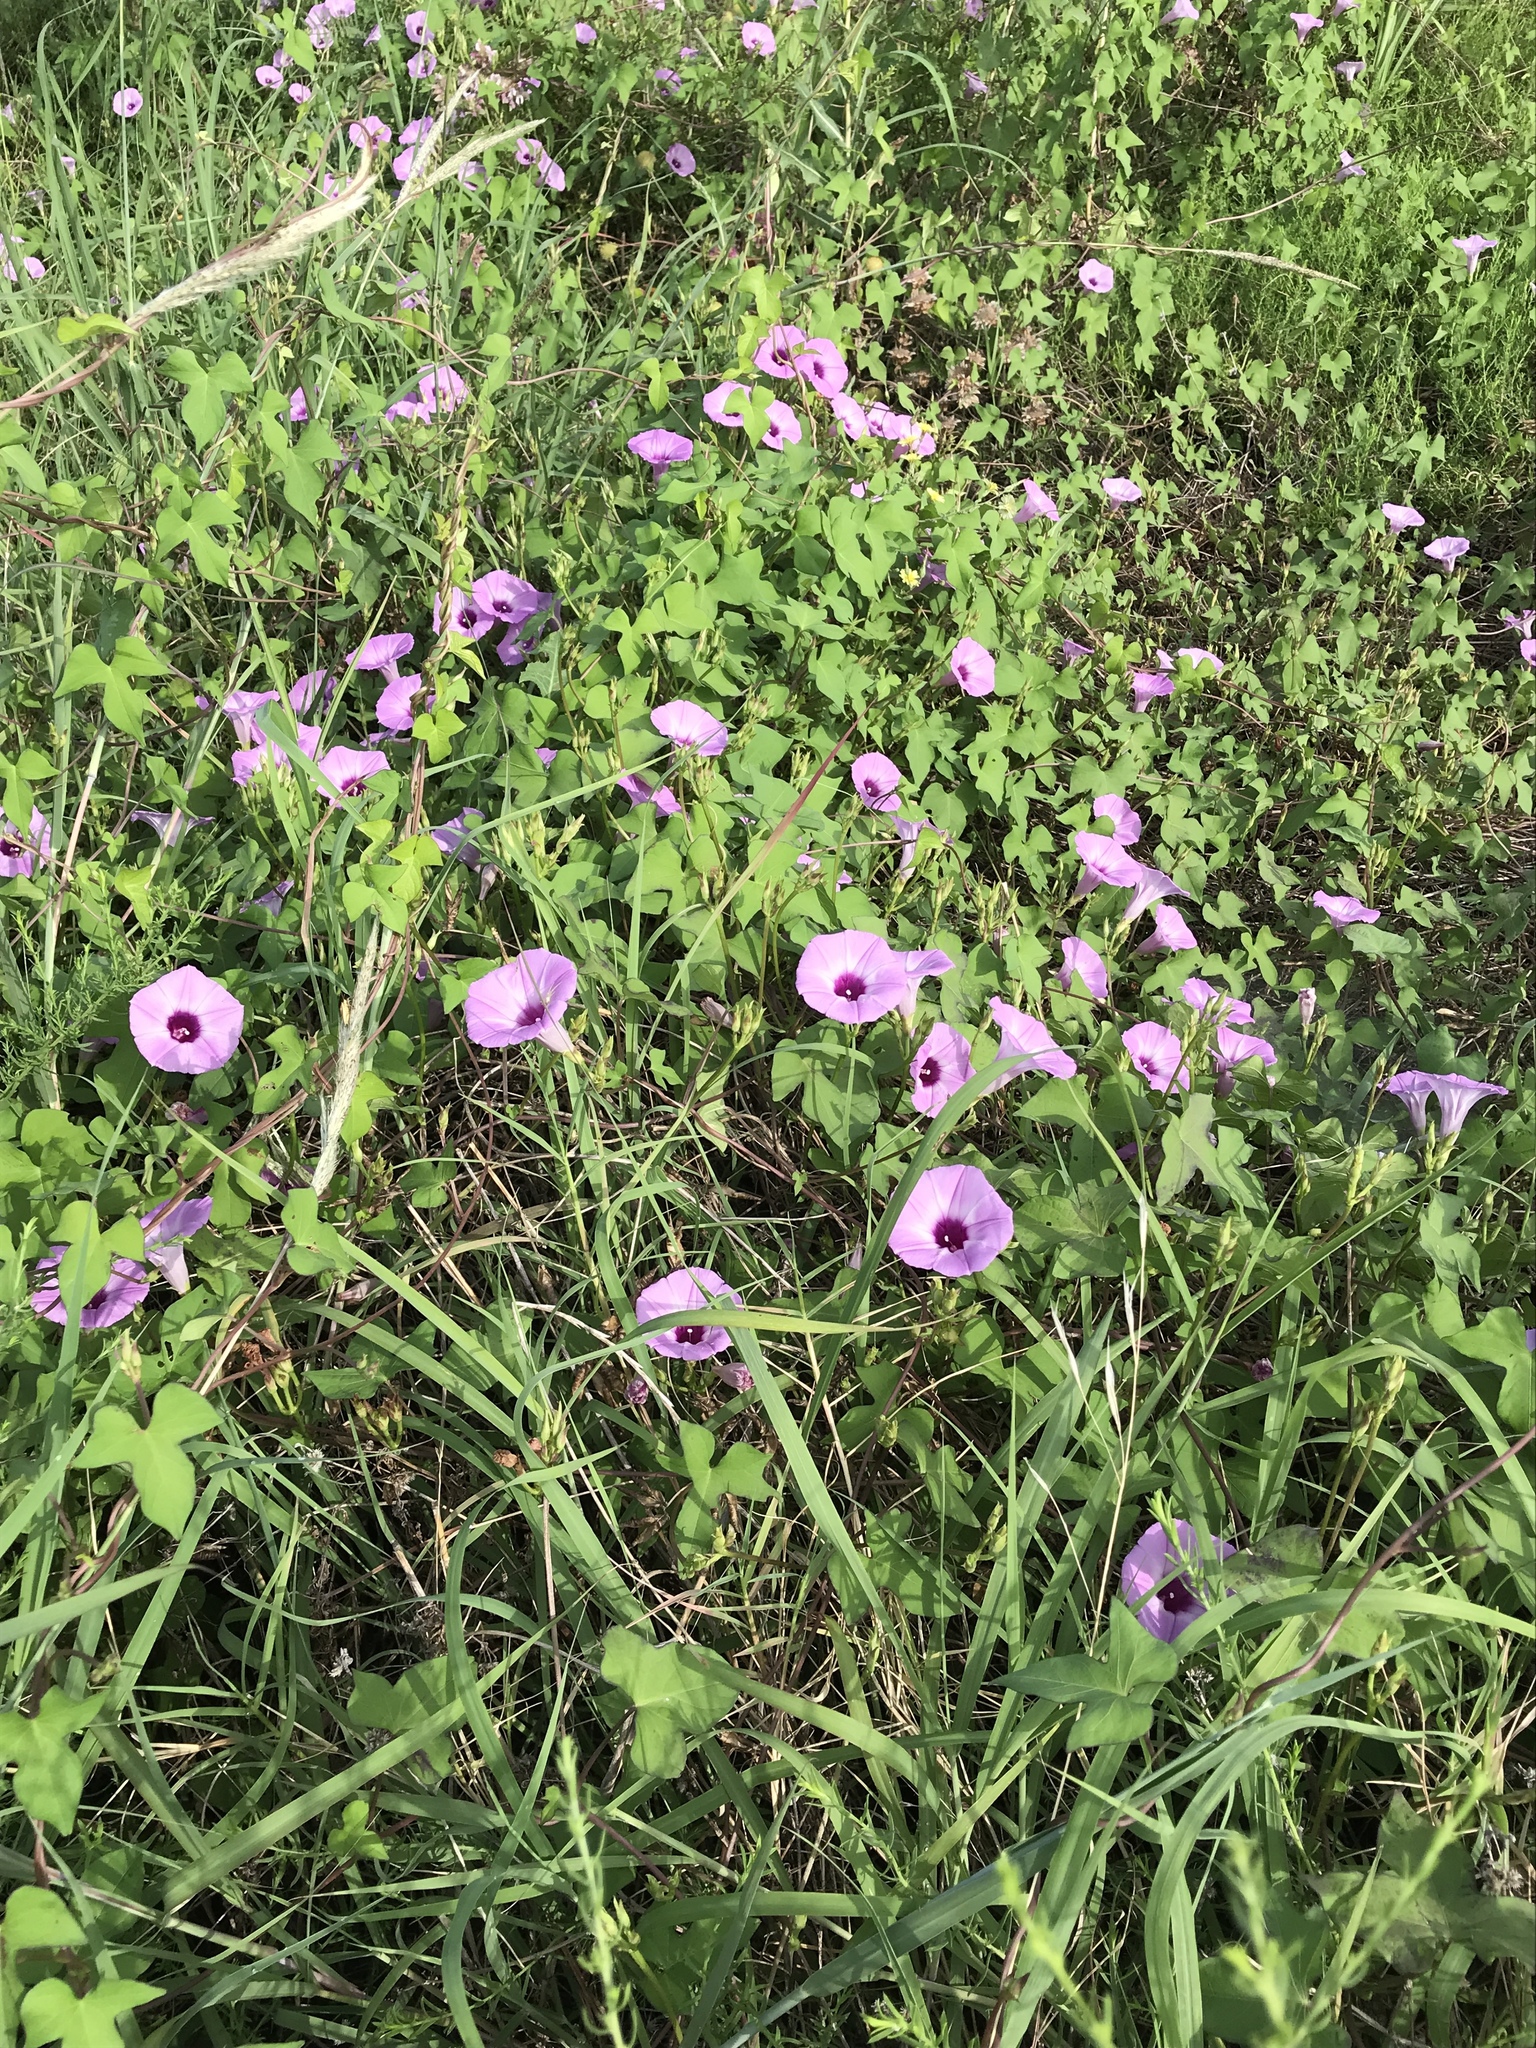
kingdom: Plantae
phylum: Tracheophyta
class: Magnoliopsida
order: Solanales
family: Convolvulaceae
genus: Ipomoea
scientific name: Ipomoea cordatotriloba
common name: Cotton morning glory
